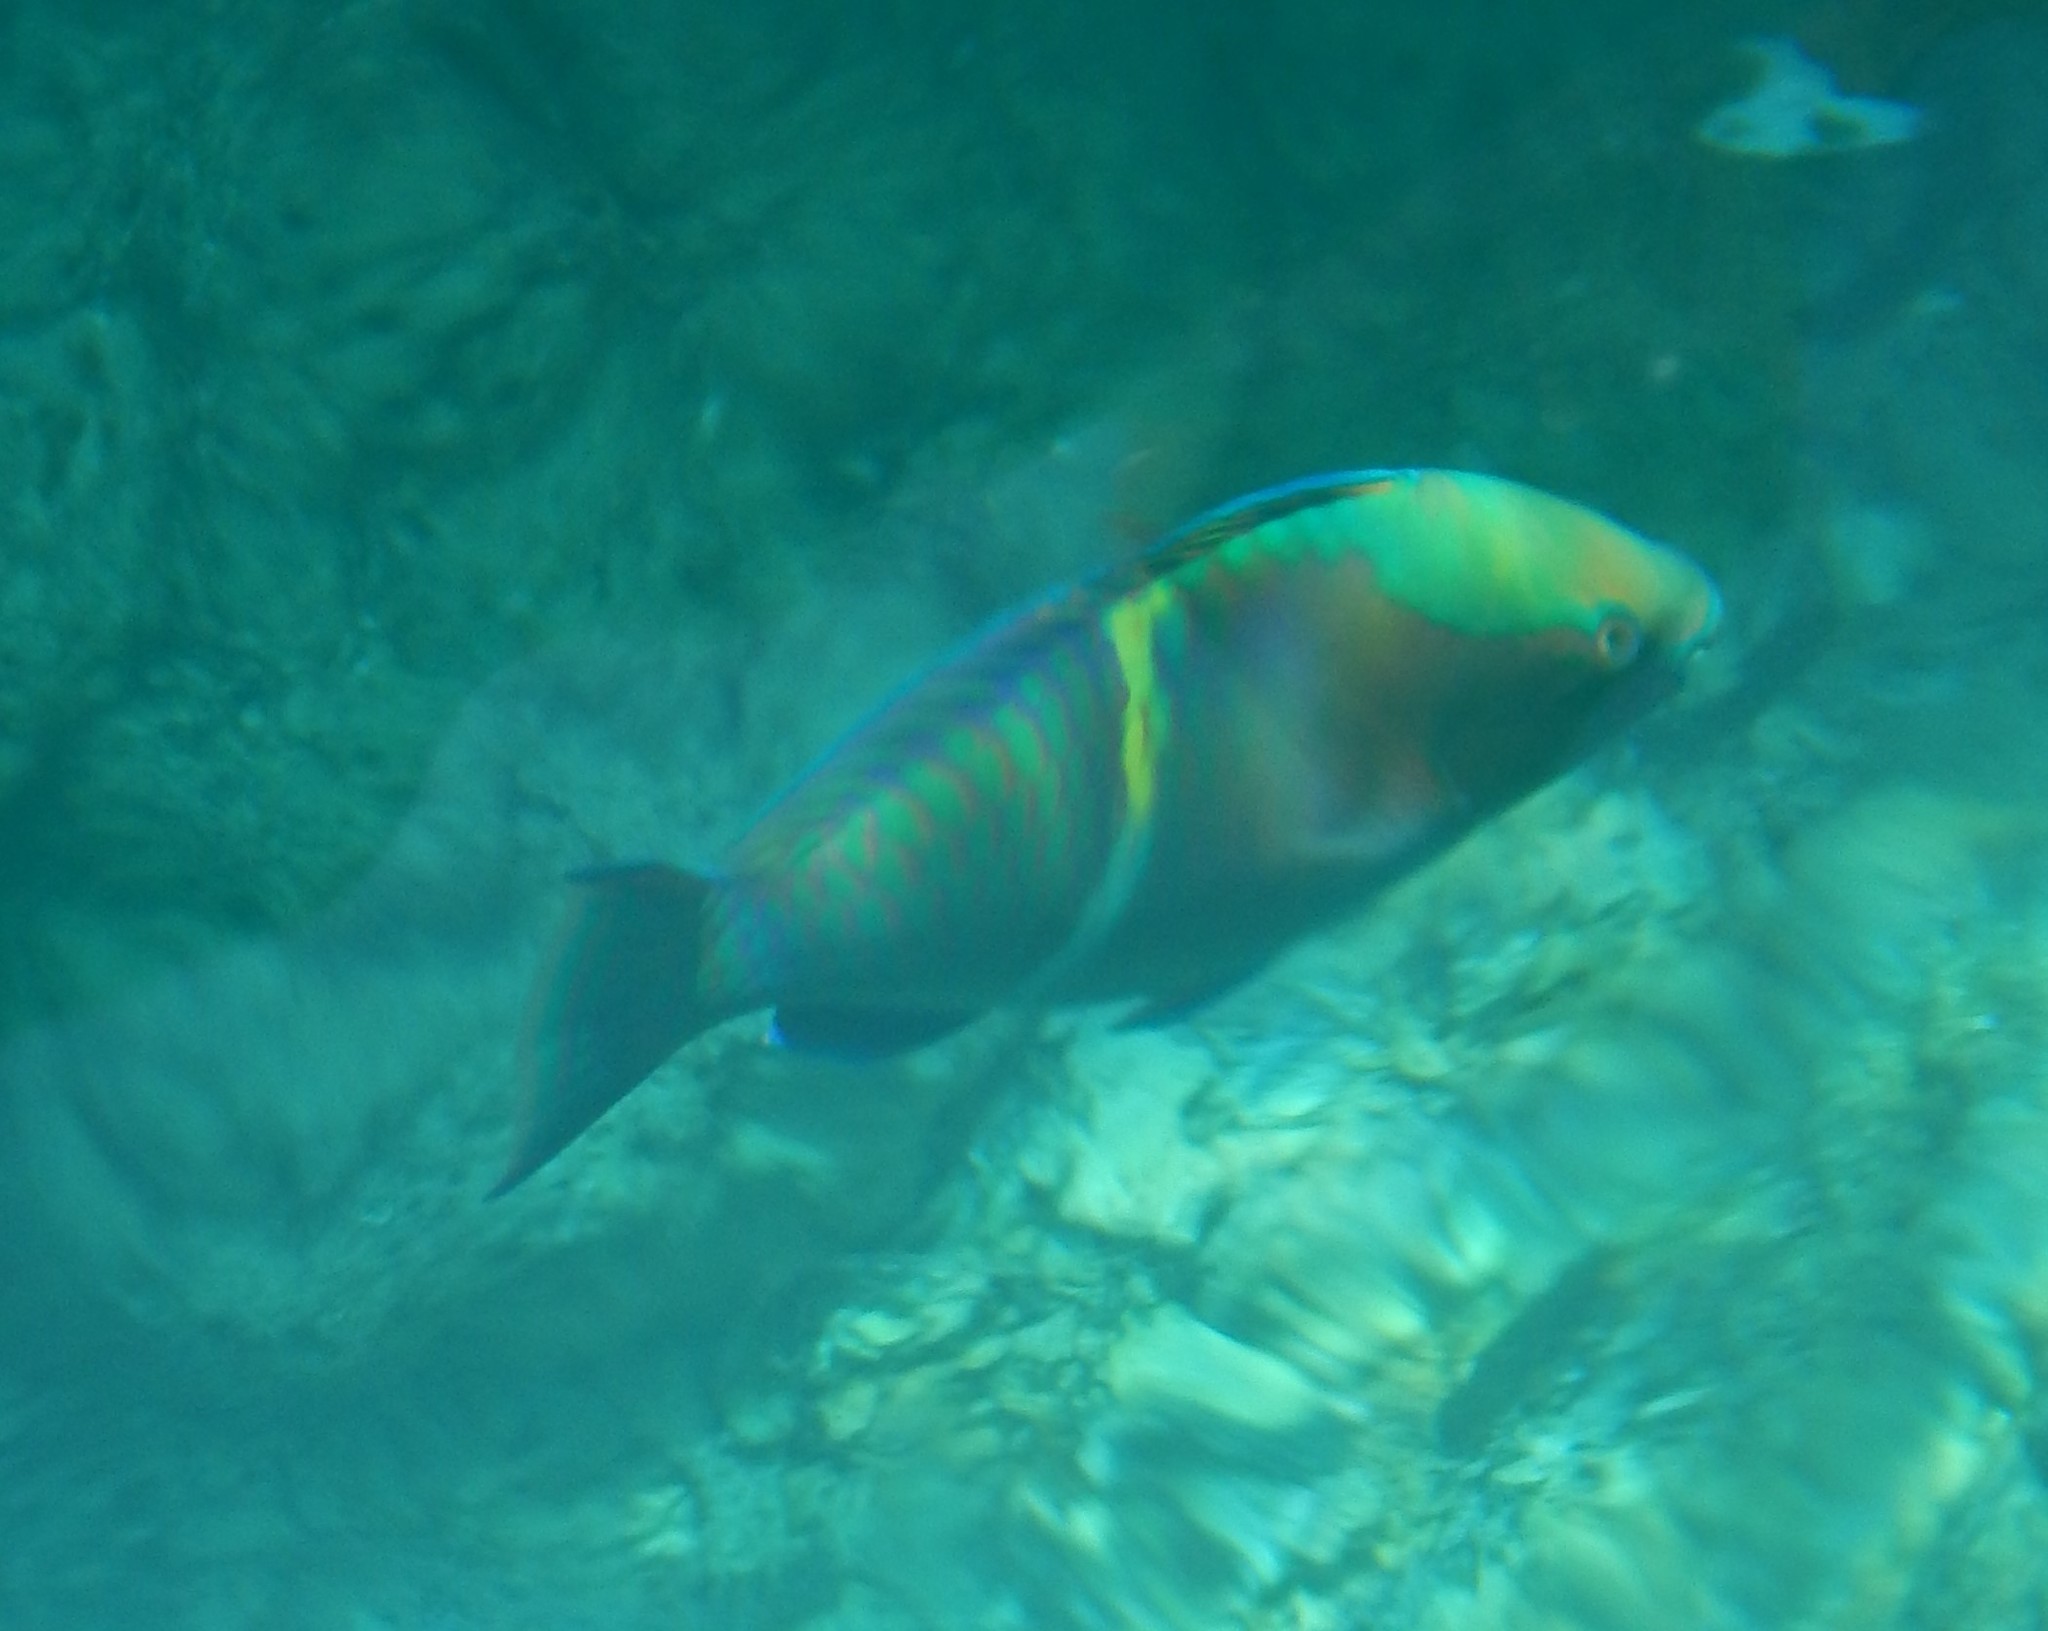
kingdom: Animalia
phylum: Chordata
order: Perciformes
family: Scaridae
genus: Scarus
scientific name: Scarus schlegeli
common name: Schlegel's parrotfish
